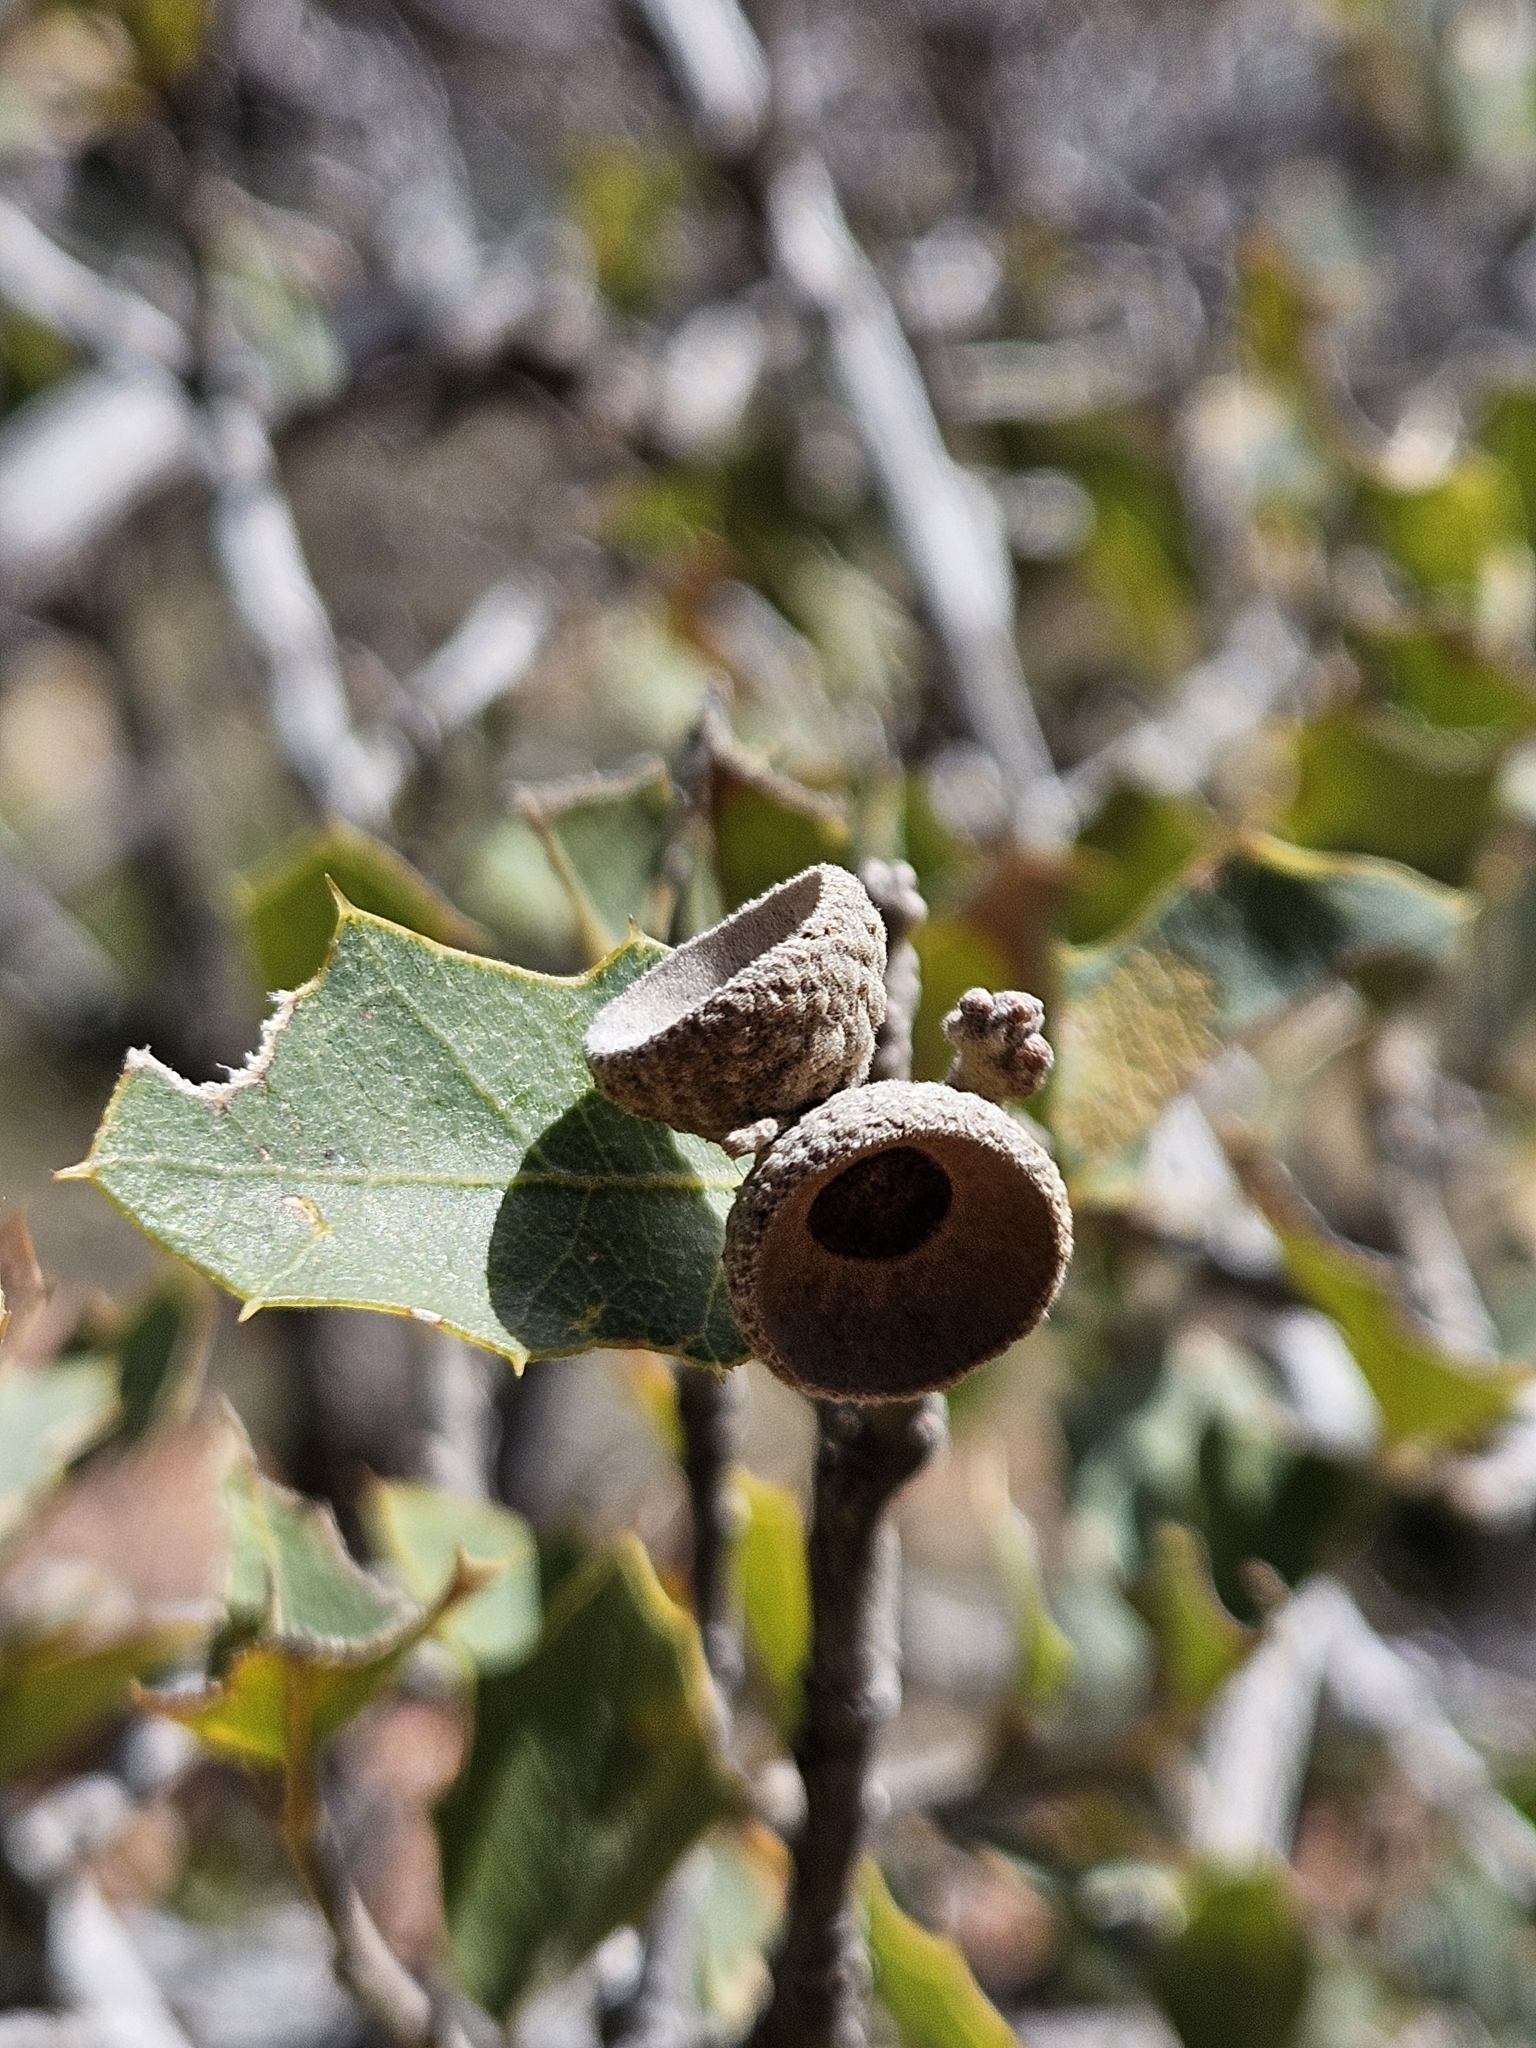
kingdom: Plantae
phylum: Tracheophyta
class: Magnoliopsida
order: Fagales
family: Fagaceae
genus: Quercus
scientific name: Quercus turbinella
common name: Sonoran scrub oak
